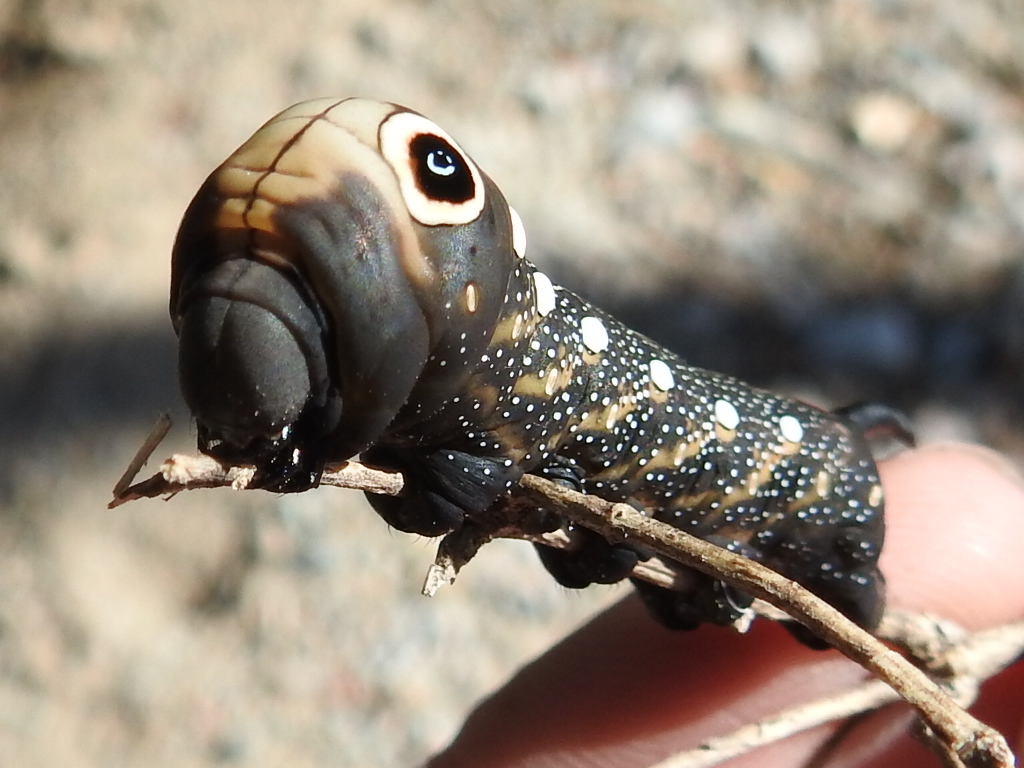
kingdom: Animalia
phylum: Arthropoda
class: Insecta
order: Lepidoptera
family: Sphingidae
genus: Xylophanes
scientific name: Xylophanes falco
